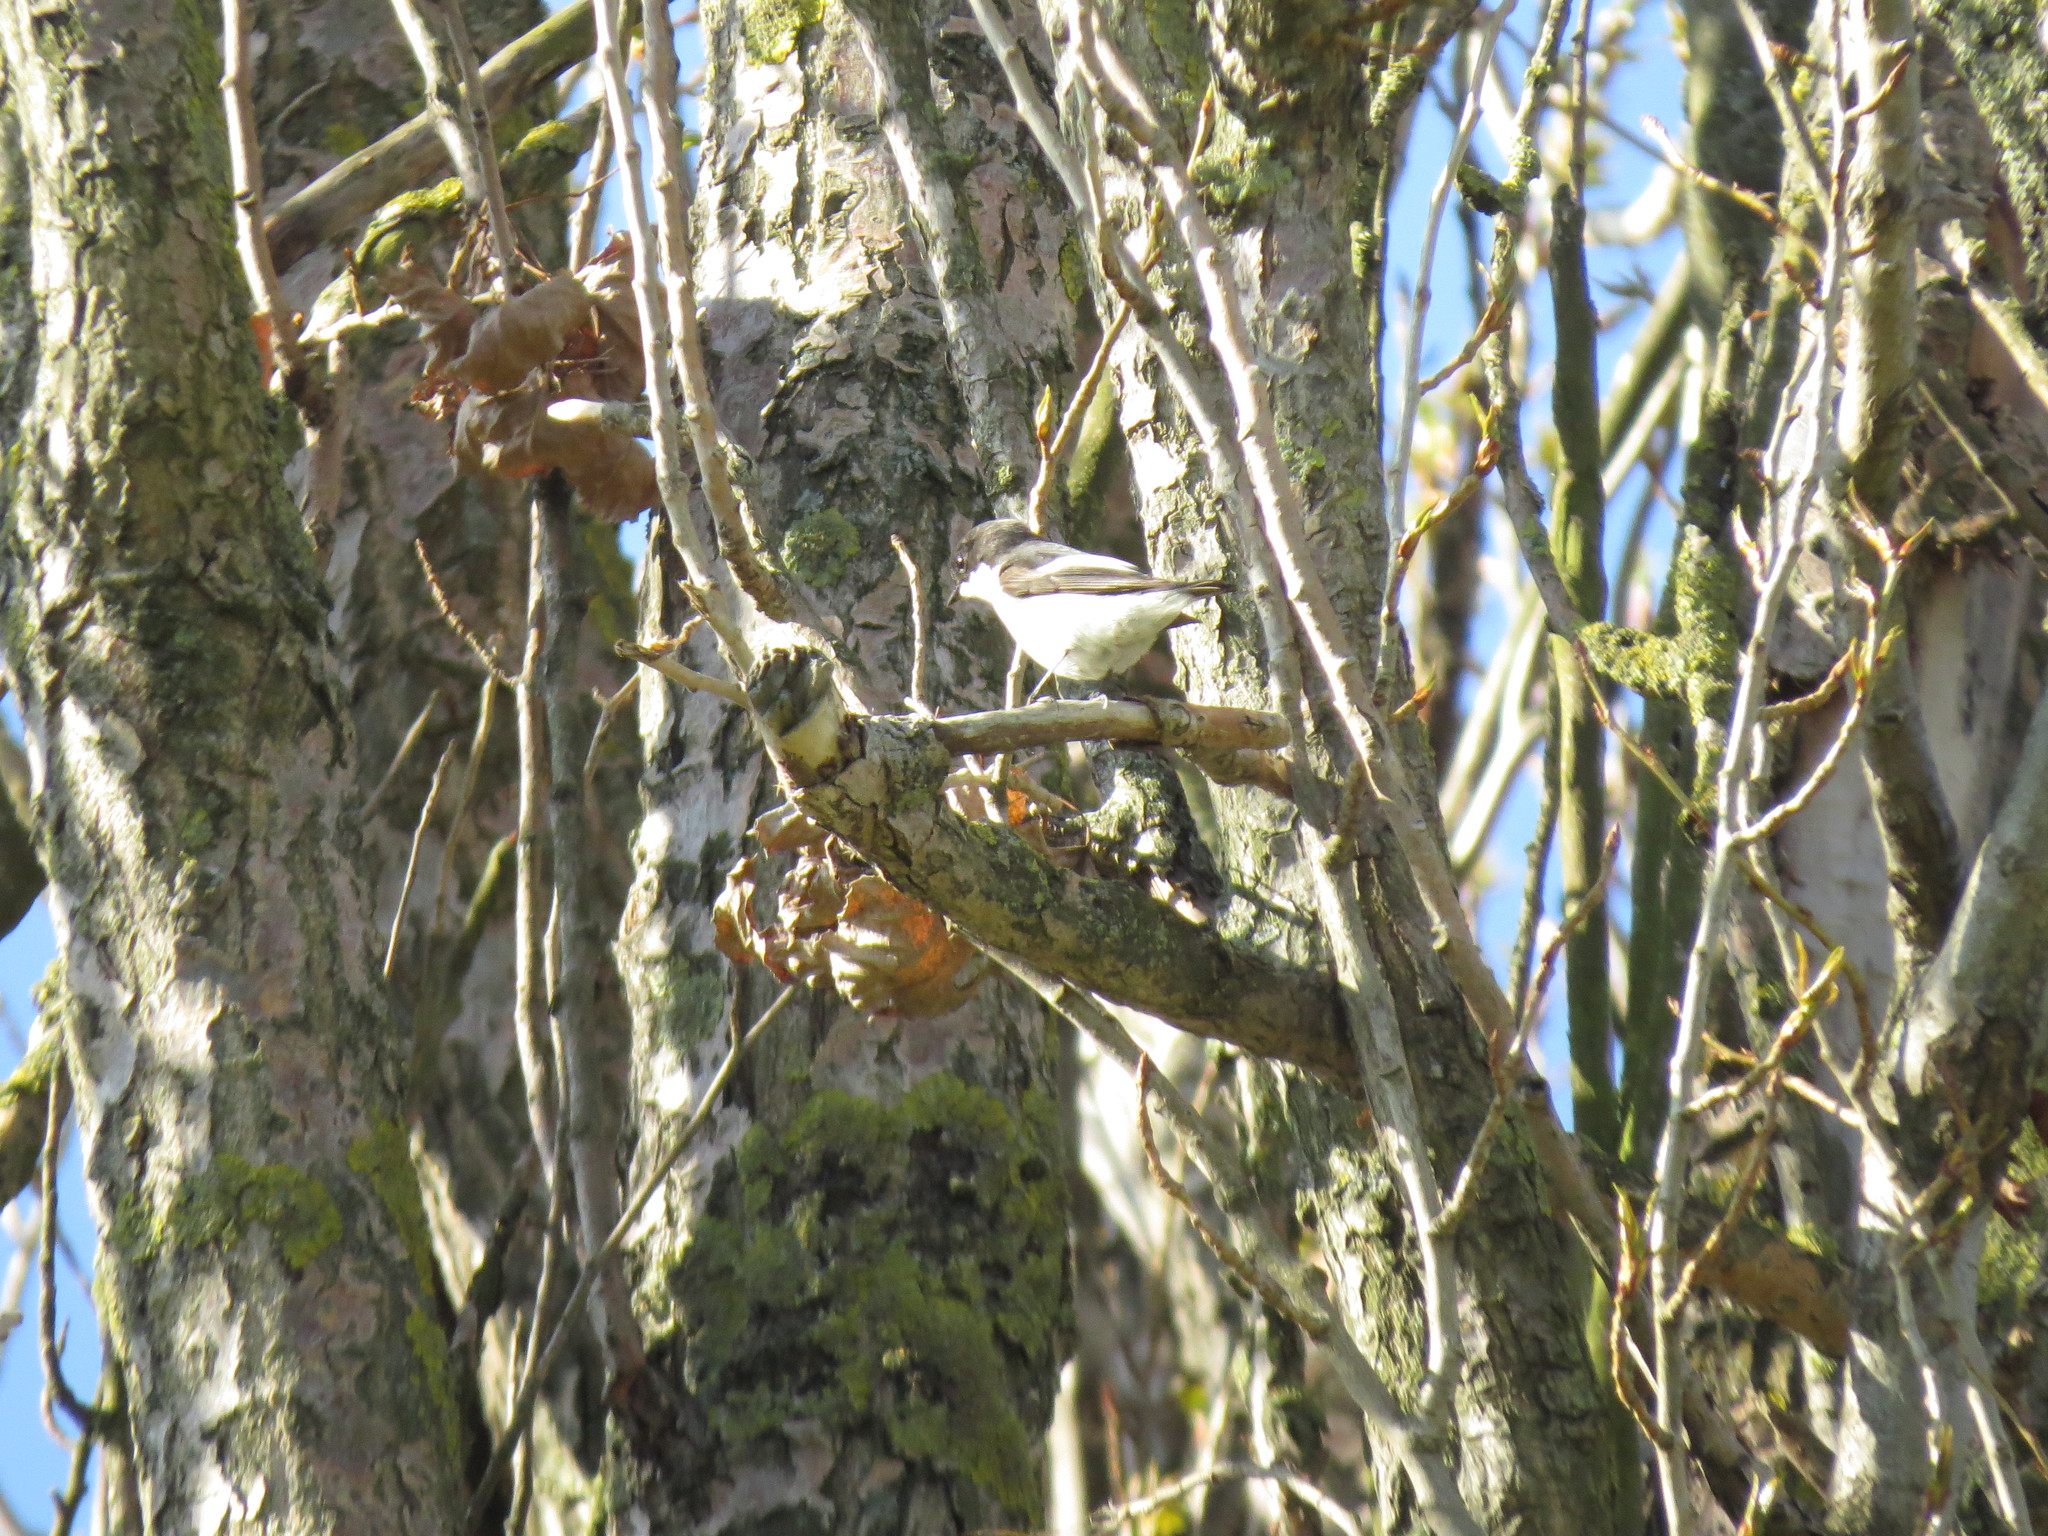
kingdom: Animalia
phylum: Chordata
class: Aves
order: Passeriformes
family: Muscicapidae
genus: Ficedula
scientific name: Ficedula hypoleuca
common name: European pied flycatcher
